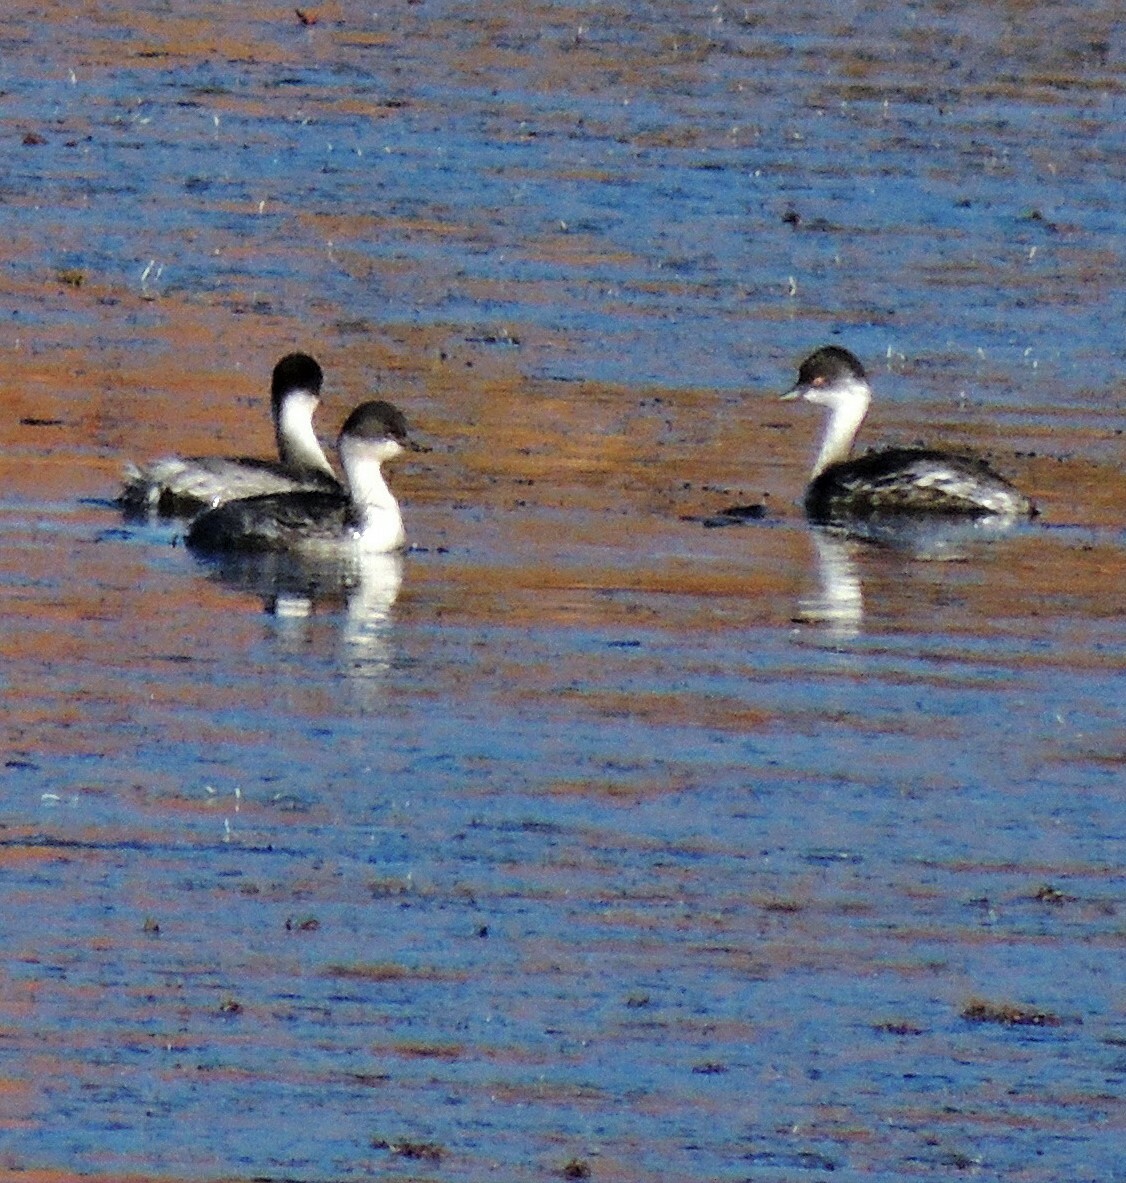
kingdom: Animalia
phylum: Chordata
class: Aves
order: Podicipediformes
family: Podicipedidae
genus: Podiceps
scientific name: Podiceps occipitalis
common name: Silvery grebe
